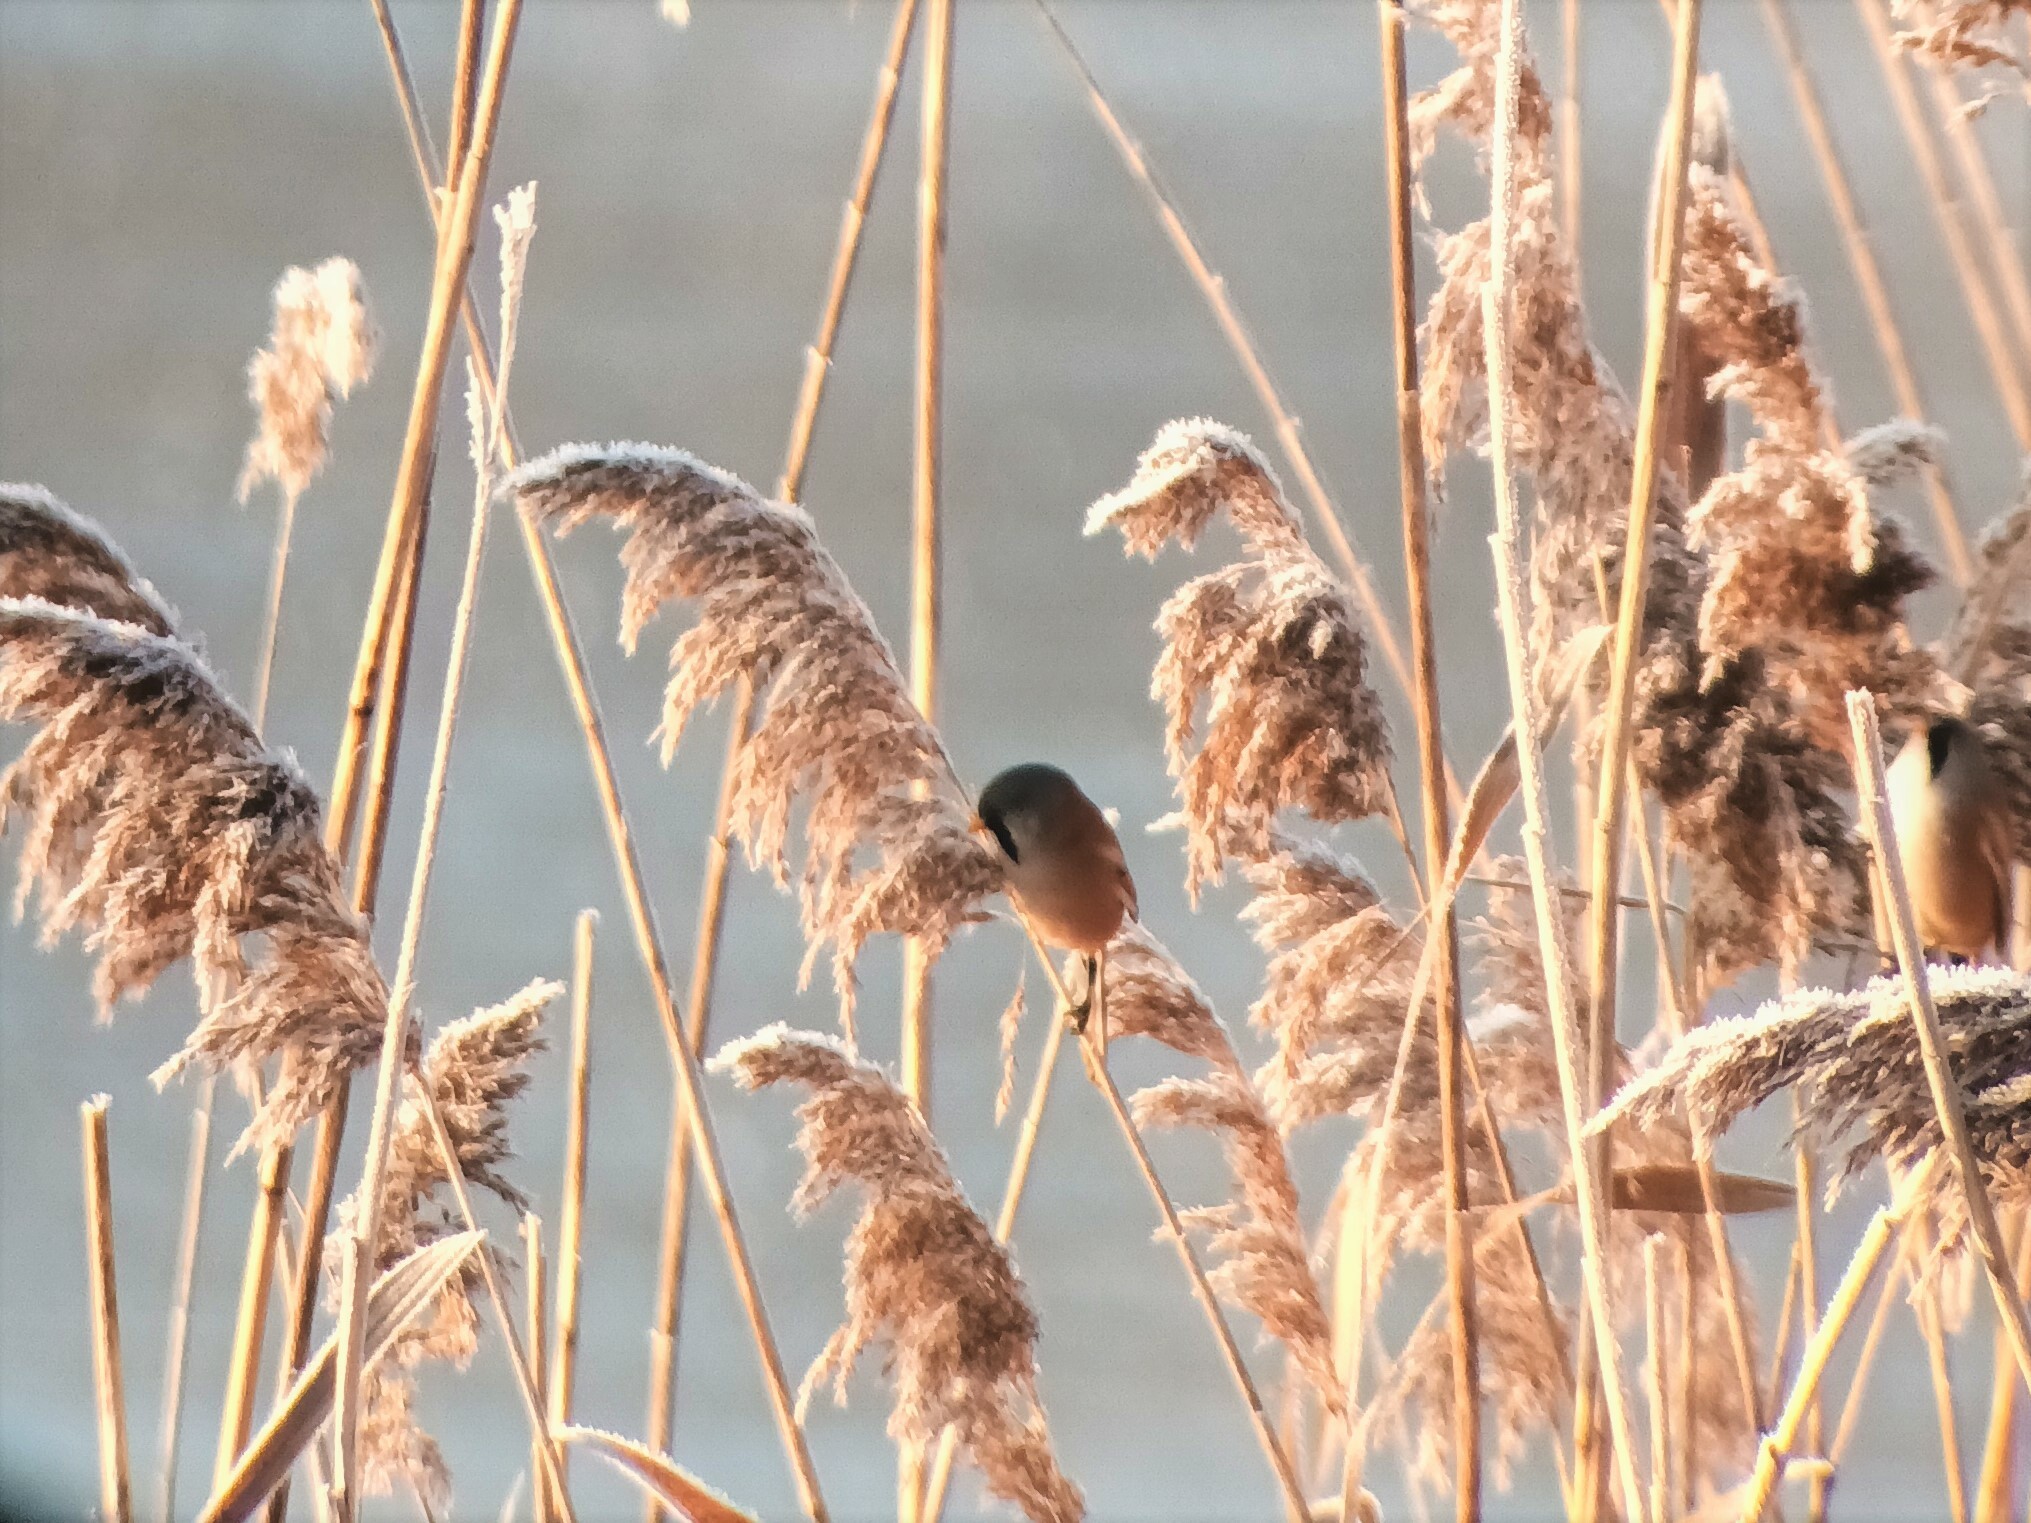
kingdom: Animalia
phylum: Chordata
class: Aves
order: Passeriformes
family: Panuridae
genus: Panurus
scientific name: Panurus biarmicus
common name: Bearded reedling
